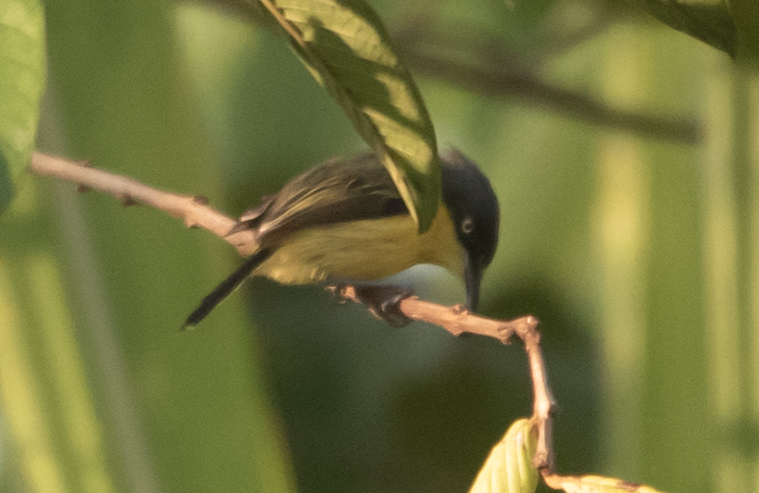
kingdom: Animalia
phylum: Chordata
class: Aves
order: Passeriformes
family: Tyrannidae
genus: Todirostrum
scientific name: Todirostrum cinereum
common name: Common tody-flycatcher
